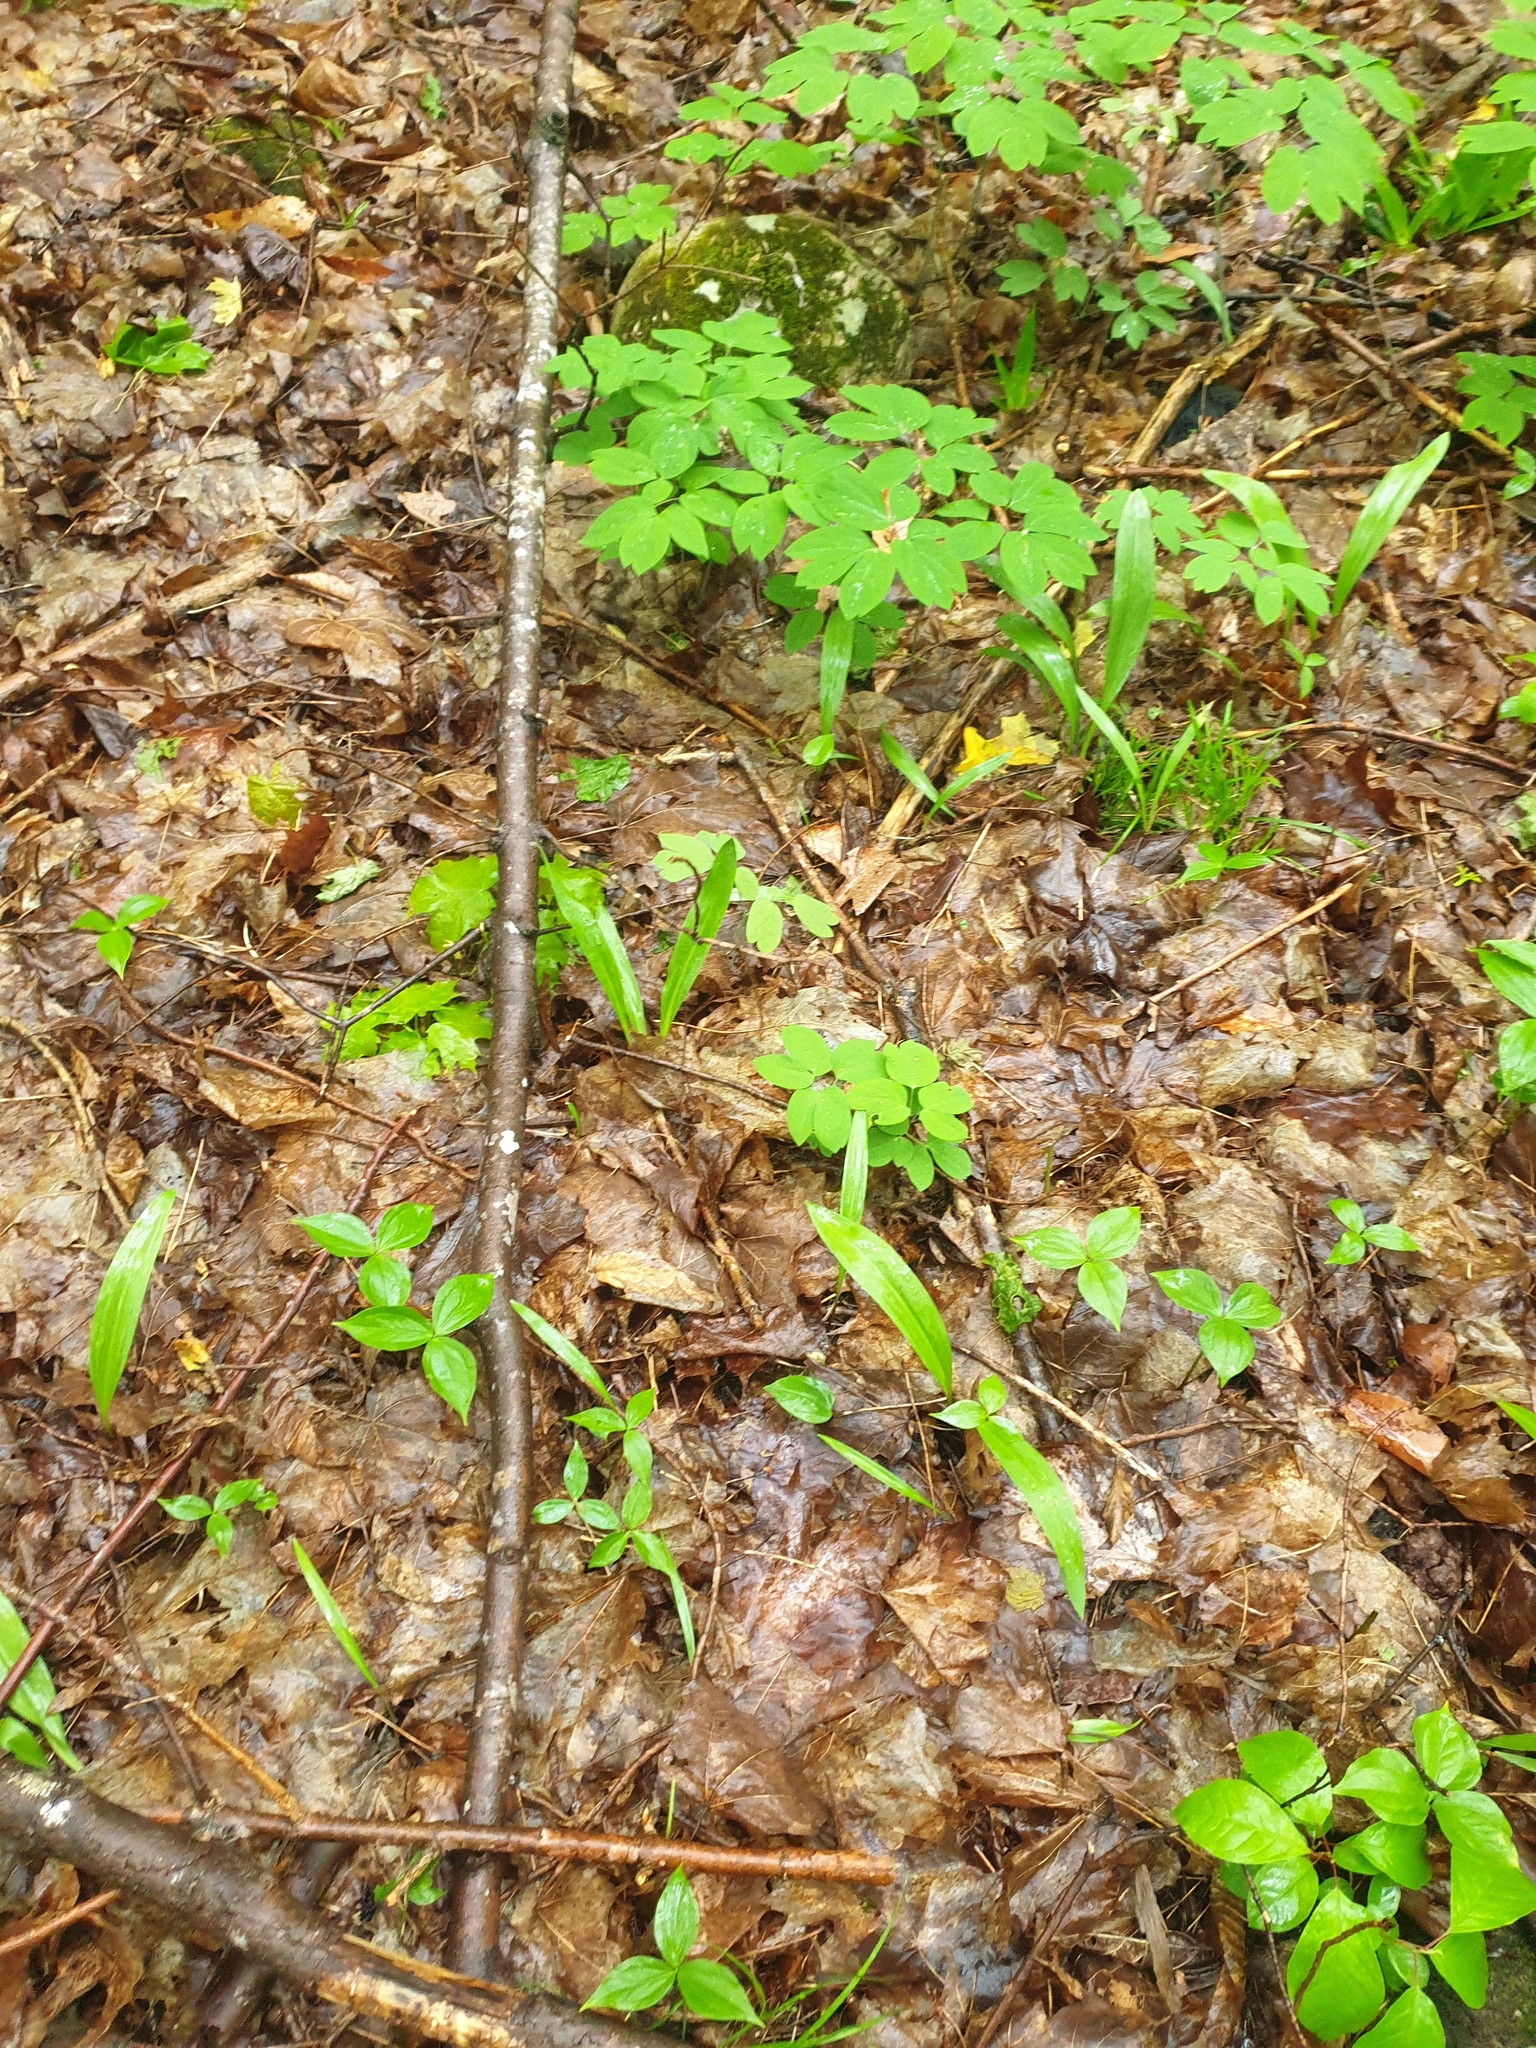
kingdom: Plantae
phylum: Tracheophyta
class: Liliopsida
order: Asparagales
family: Amaryllidaceae
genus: Allium
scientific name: Allium tricoccum
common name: Ramp
